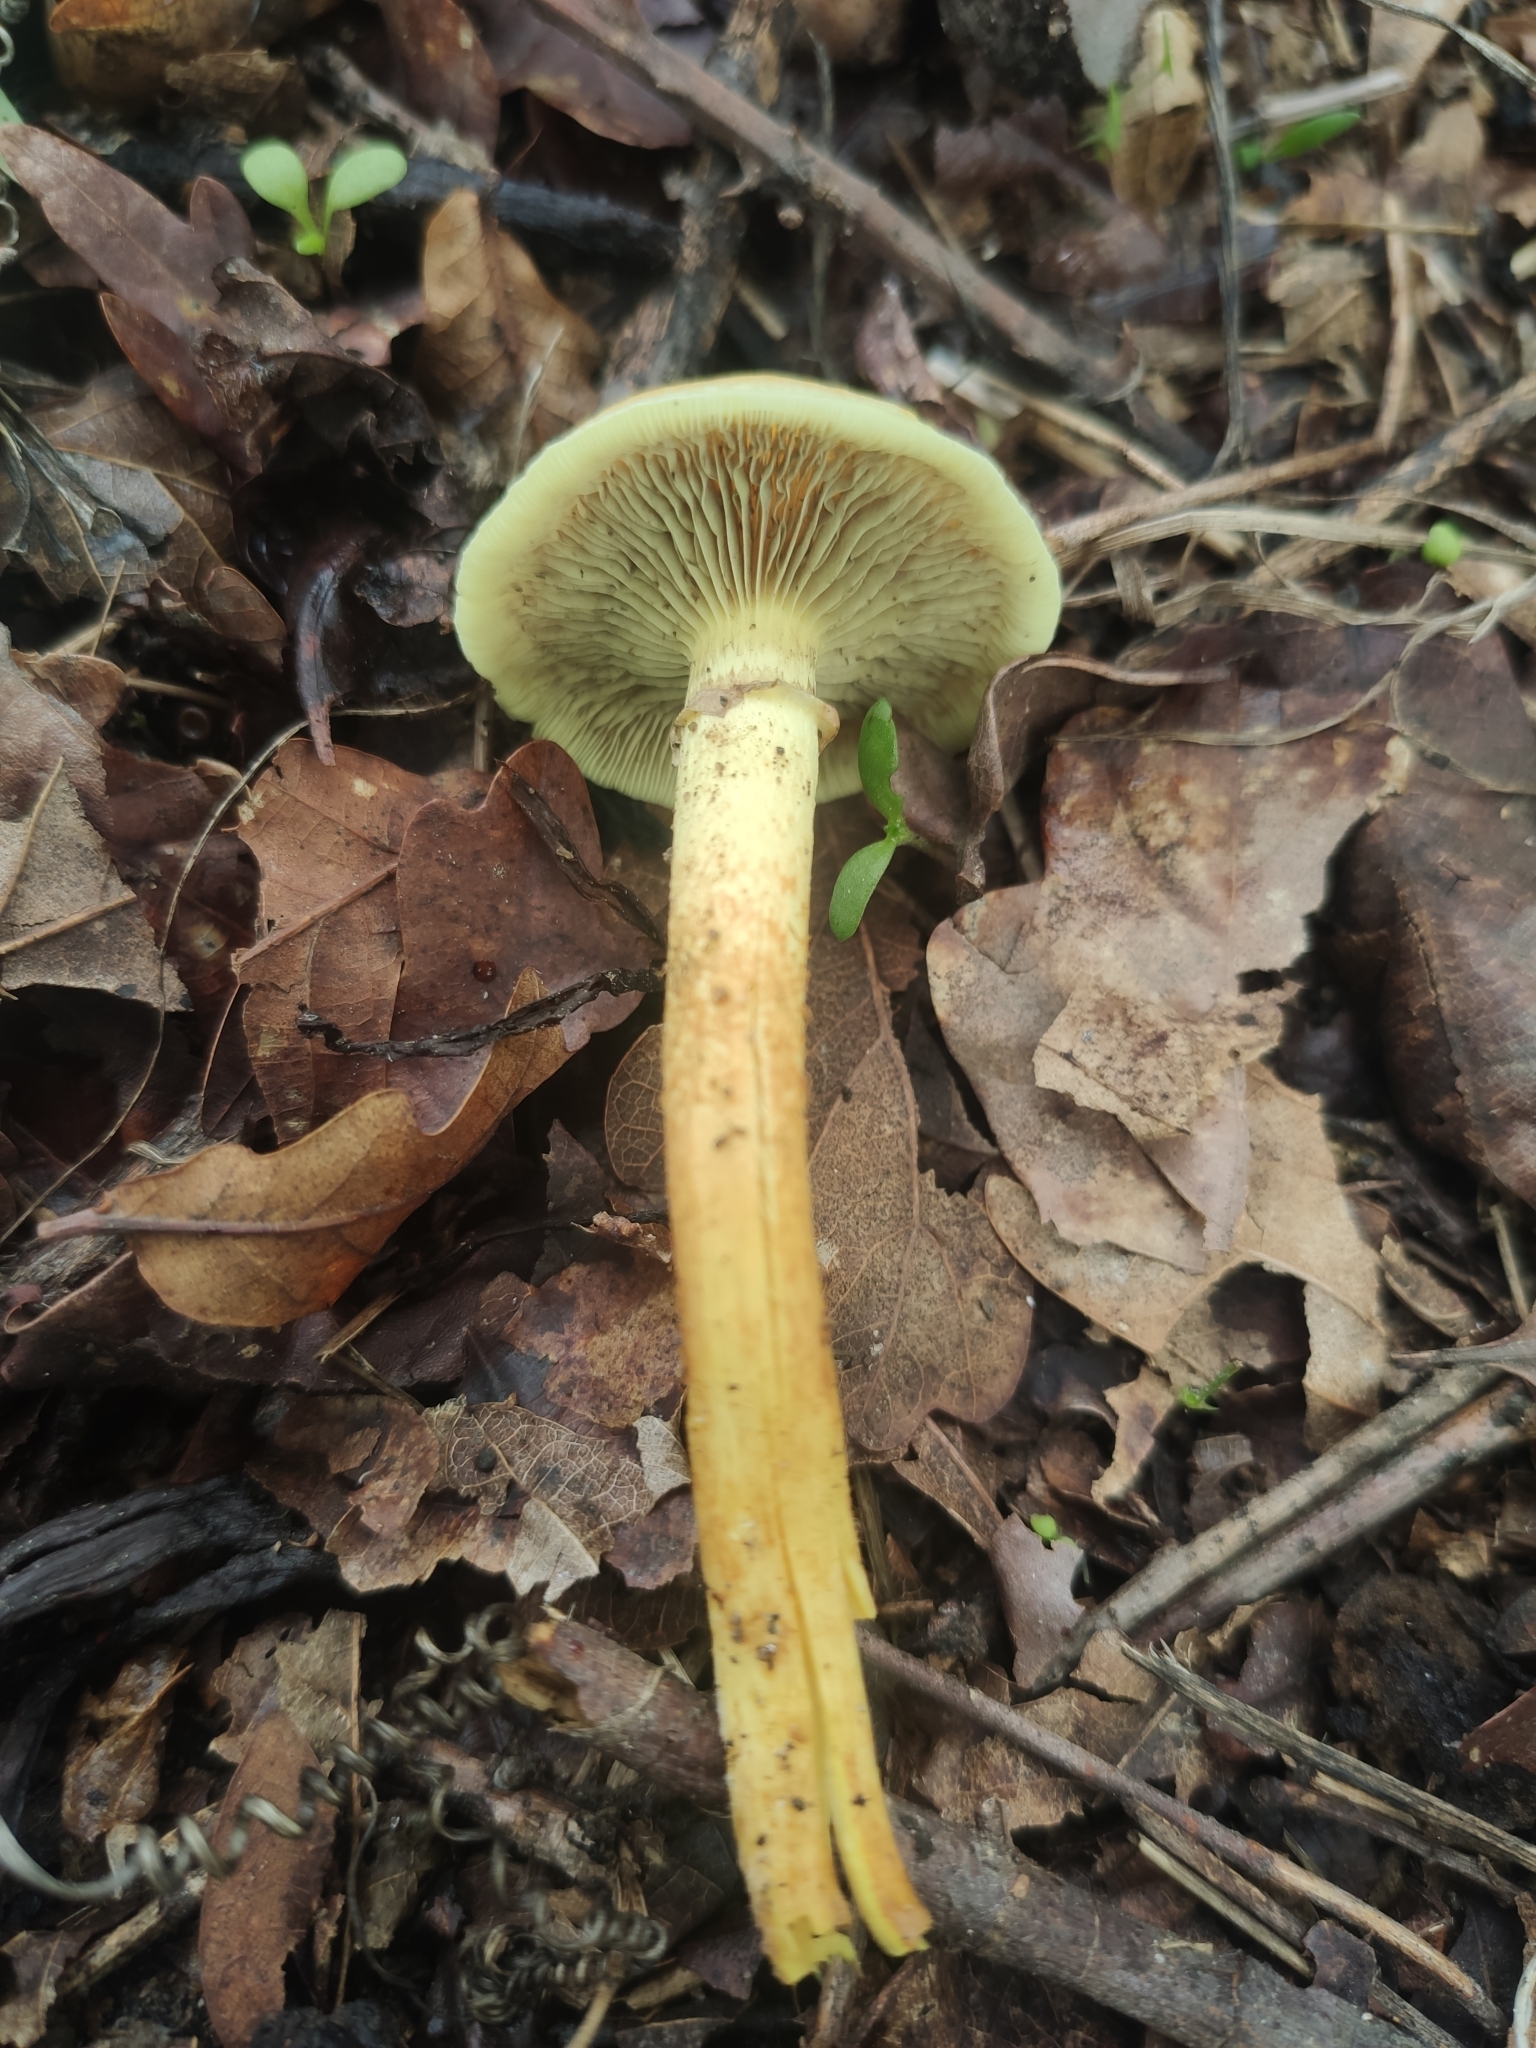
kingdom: Fungi
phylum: Basidiomycota
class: Agaricomycetes
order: Agaricales
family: Strophariaceae
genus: Hypholoma
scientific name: Hypholoma fasciculare
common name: Sulphur tuft
